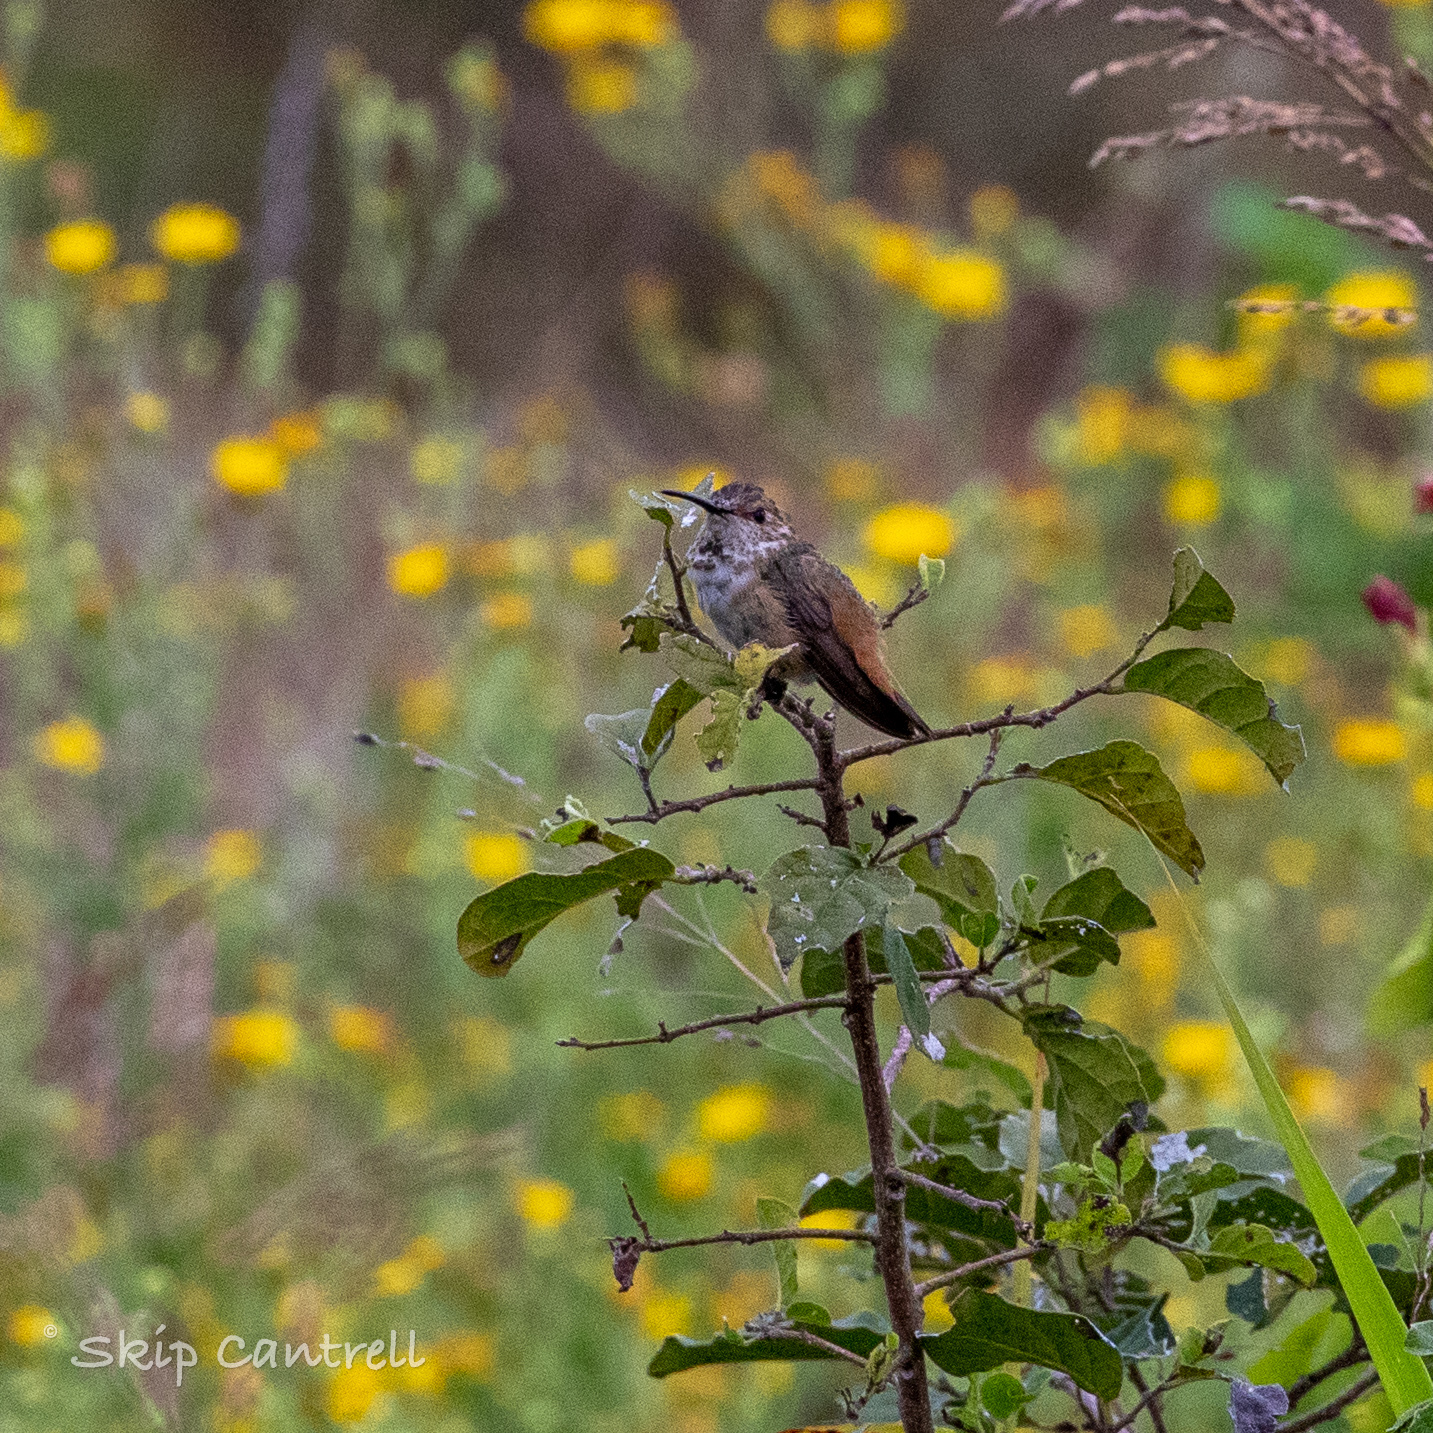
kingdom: Animalia
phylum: Chordata
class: Aves
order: Apodiformes
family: Trochilidae
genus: Selasphorus
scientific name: Selasphorus rufus
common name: Rufous hummingbird
